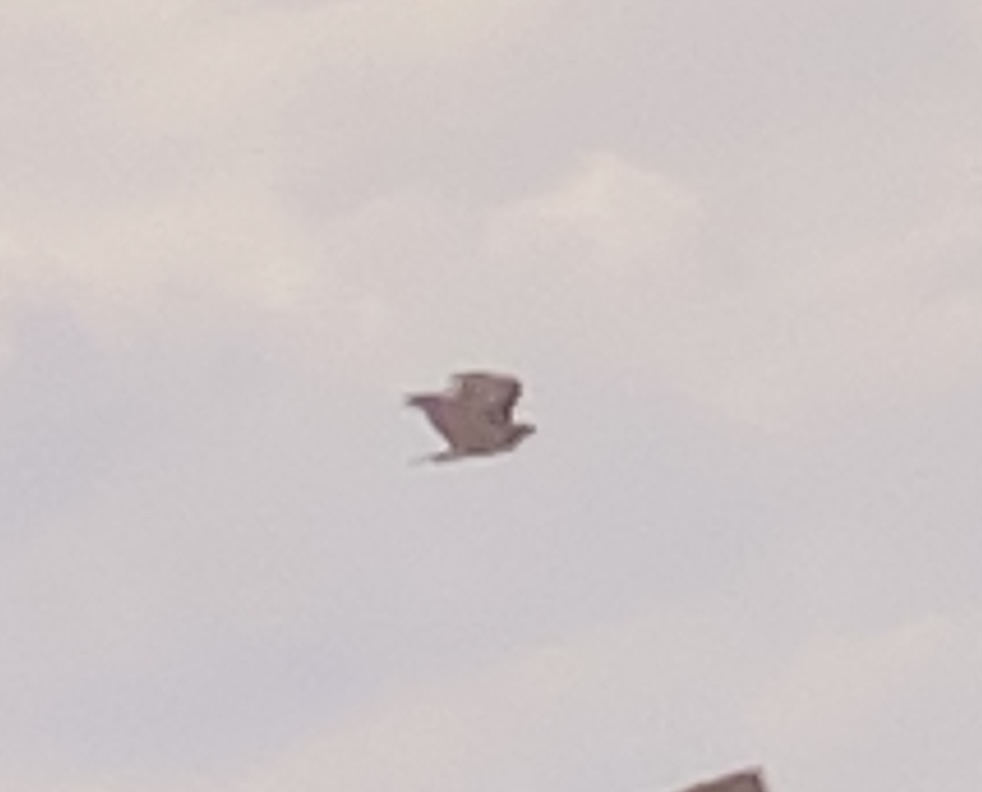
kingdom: Animalia
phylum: Chordata
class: Aves
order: Accipitriformes
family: Accipitridae
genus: Buteo
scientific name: Buteo jamaicensis
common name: Red-tailed hawk
